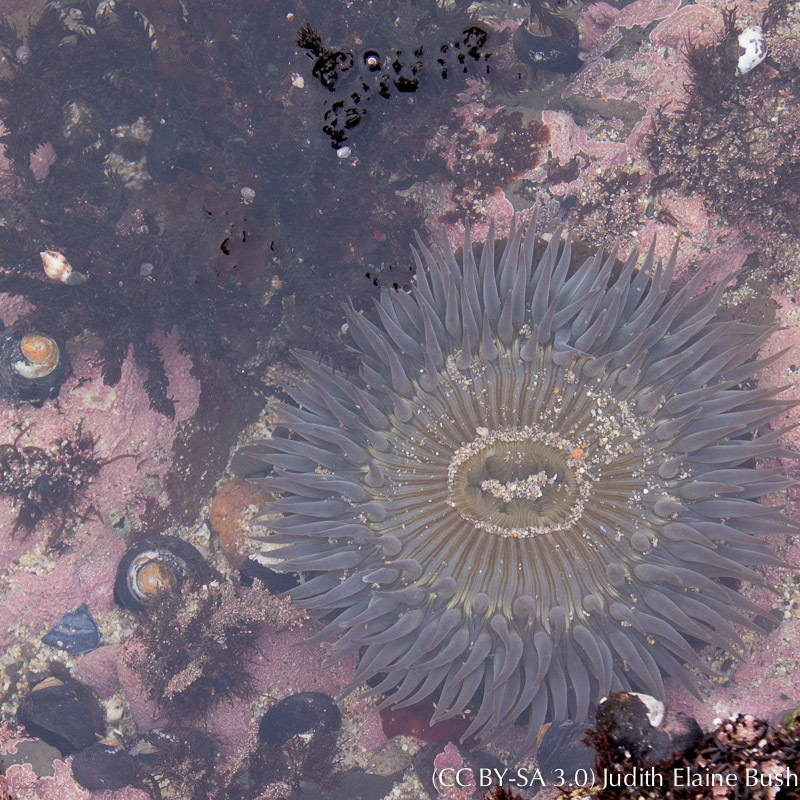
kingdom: Animalia
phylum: Cnidaria
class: Anthozoa
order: Actiniaria
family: Actiniidae
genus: Anthopleura
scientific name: Anthopleura sola
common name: Sun anemone
